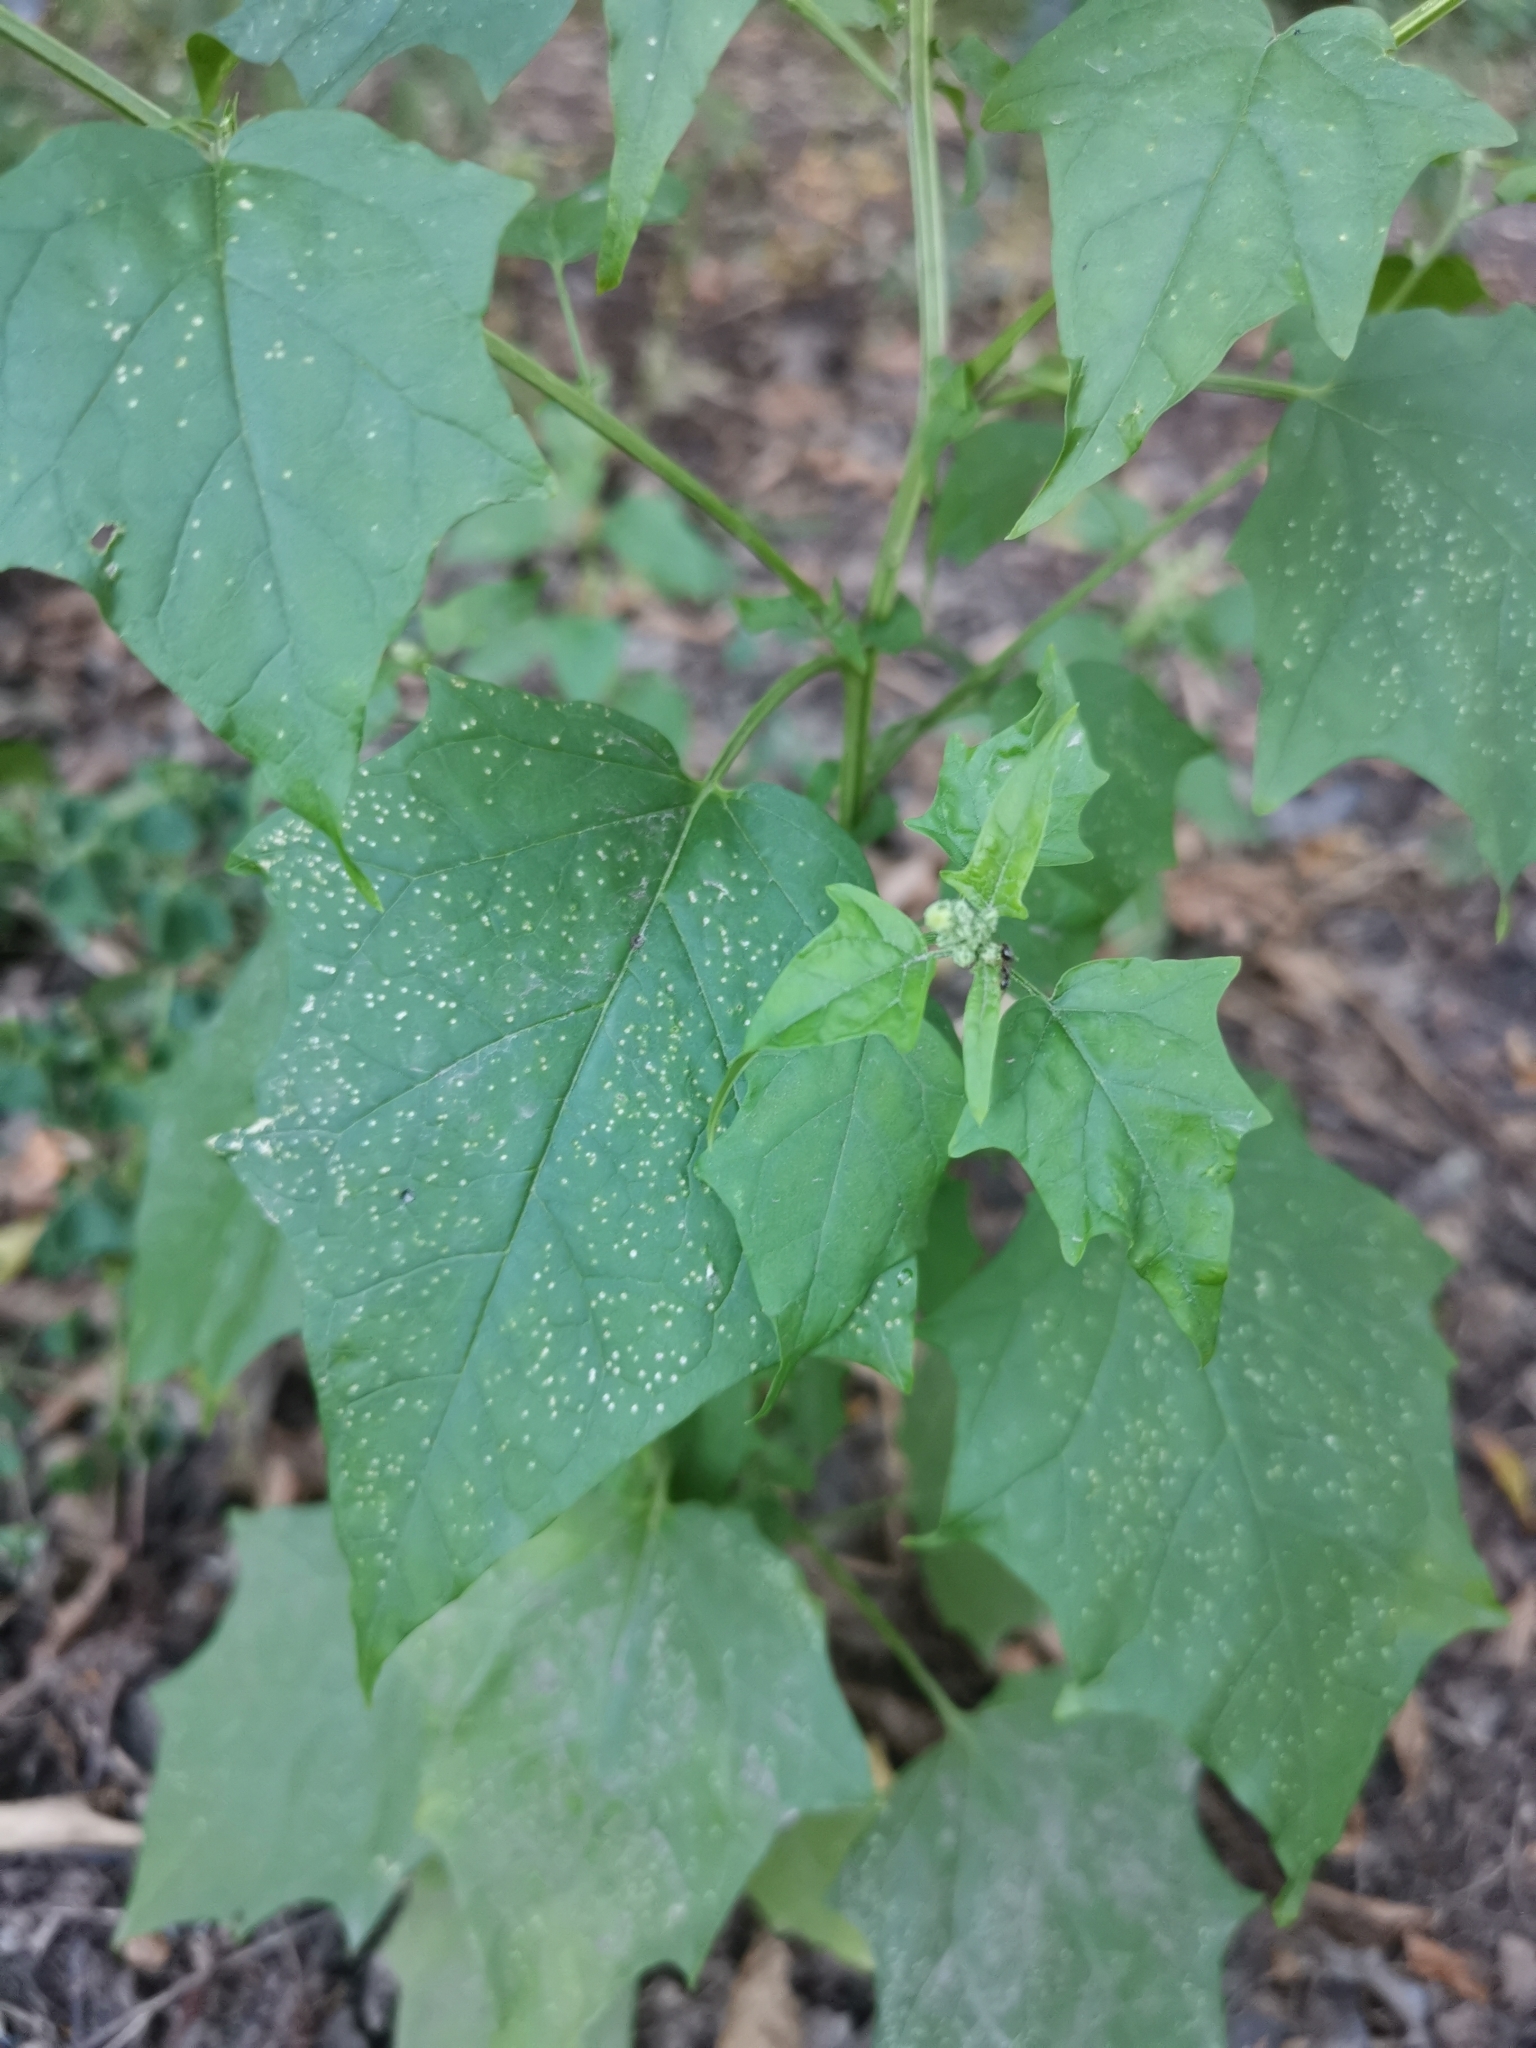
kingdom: Plantae
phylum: Tracheophyta
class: Magnoliopsida
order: Caryophyllales
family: Amaranthaceae
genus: Chenopodiastrum
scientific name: Chenopodiastrum hybridum
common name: Mapleleaf goosefoot
